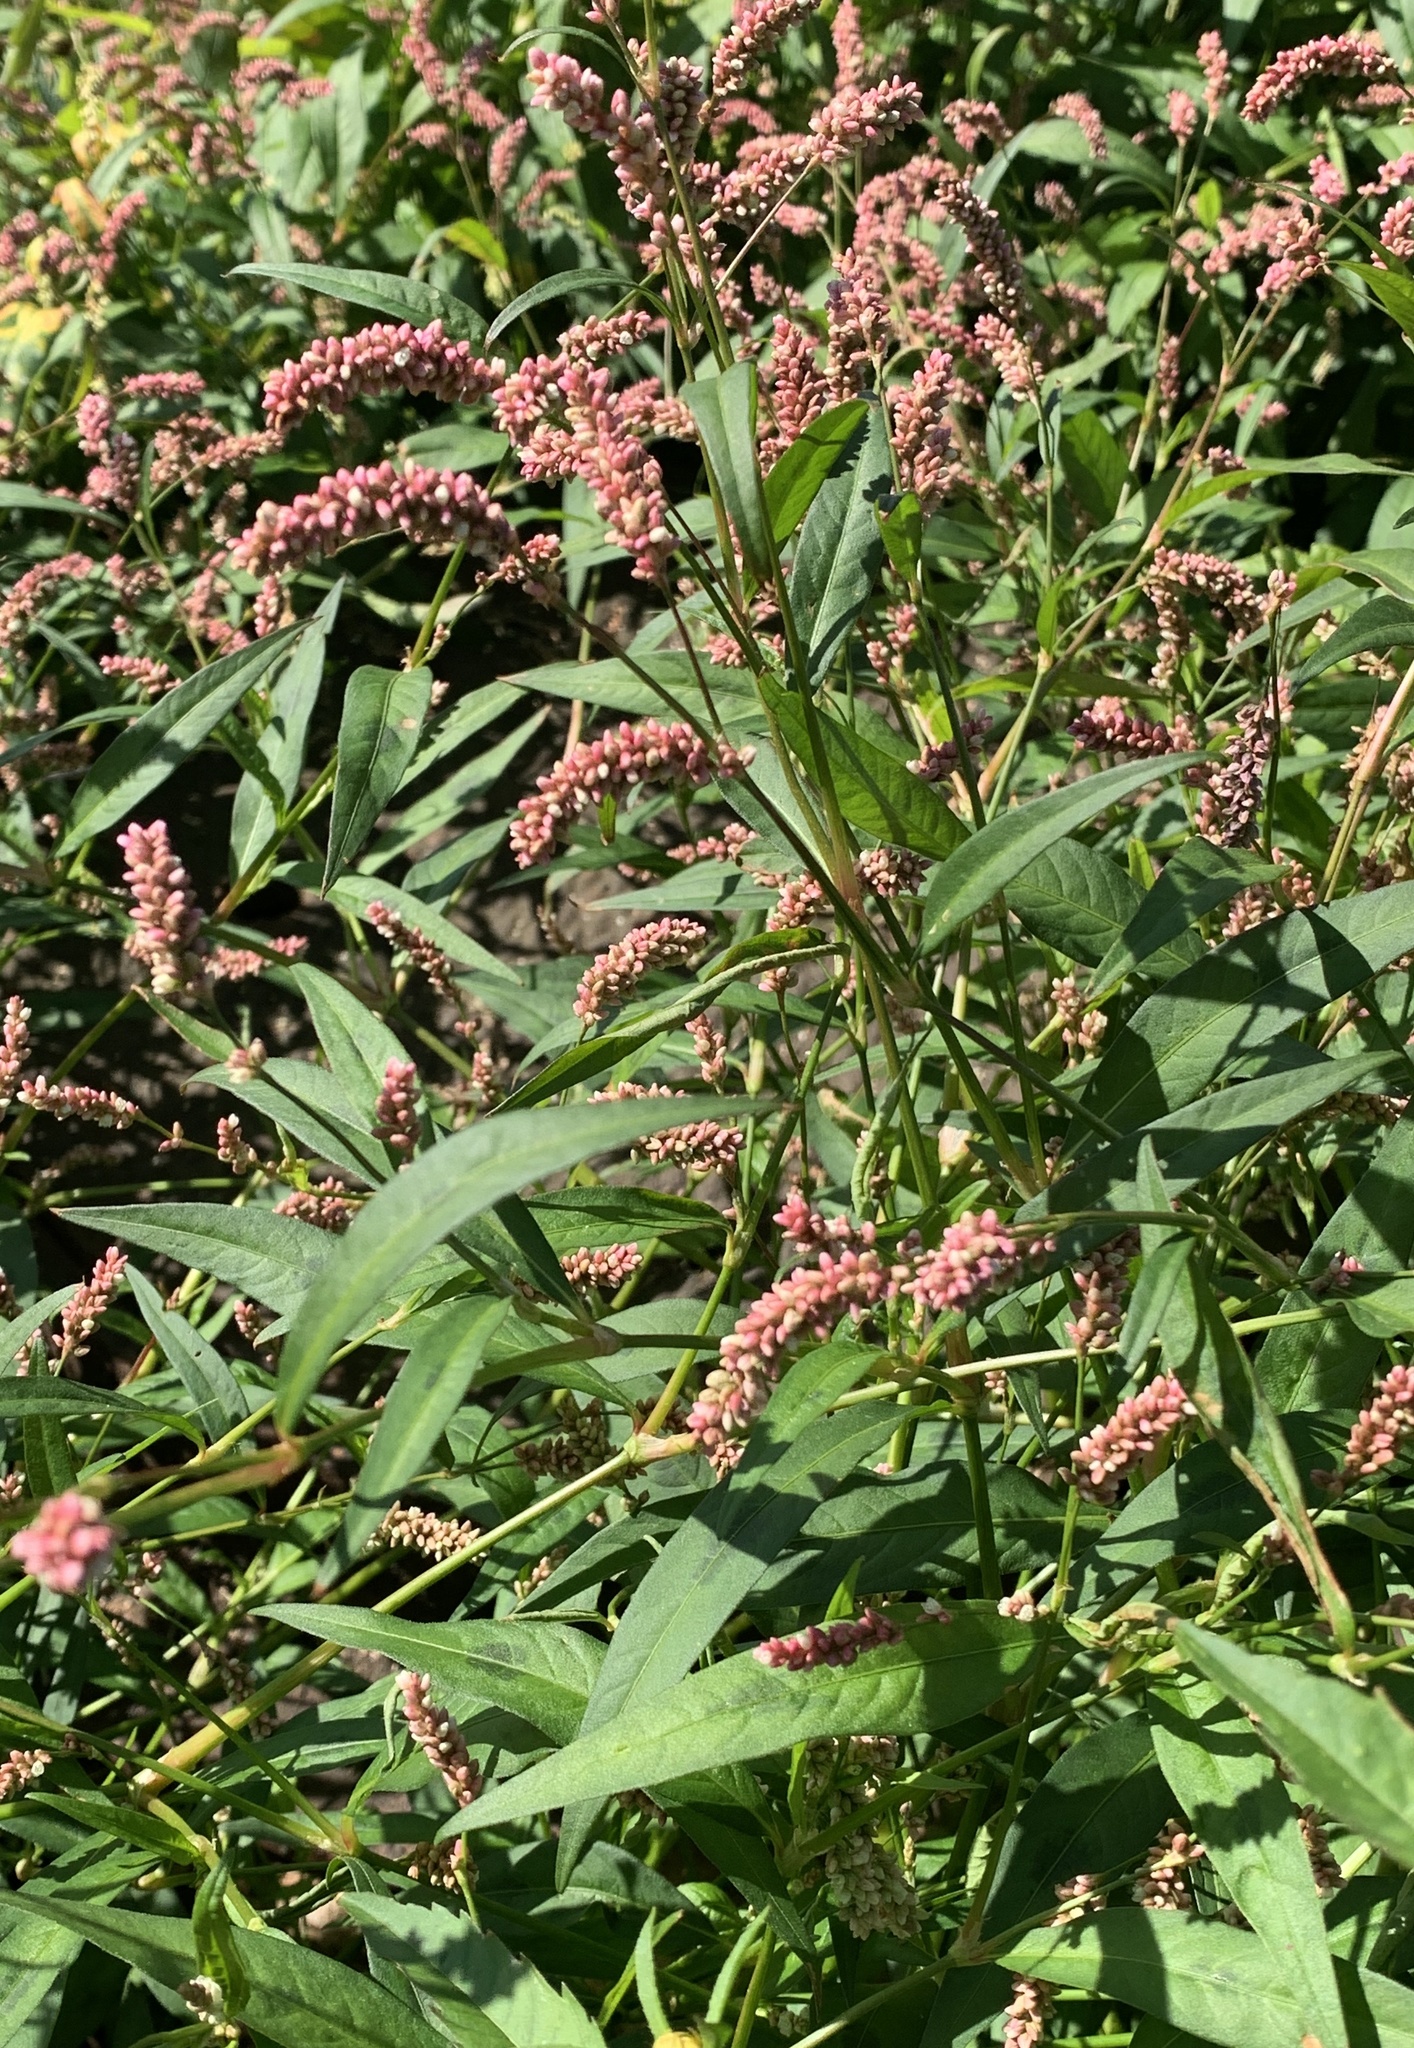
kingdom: Plantae
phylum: Tracheophyta
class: Magnoliopsida
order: Caryophyllales
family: Polygonaceae
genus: Persicaria
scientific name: Persicaria maculosa
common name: Redshank
